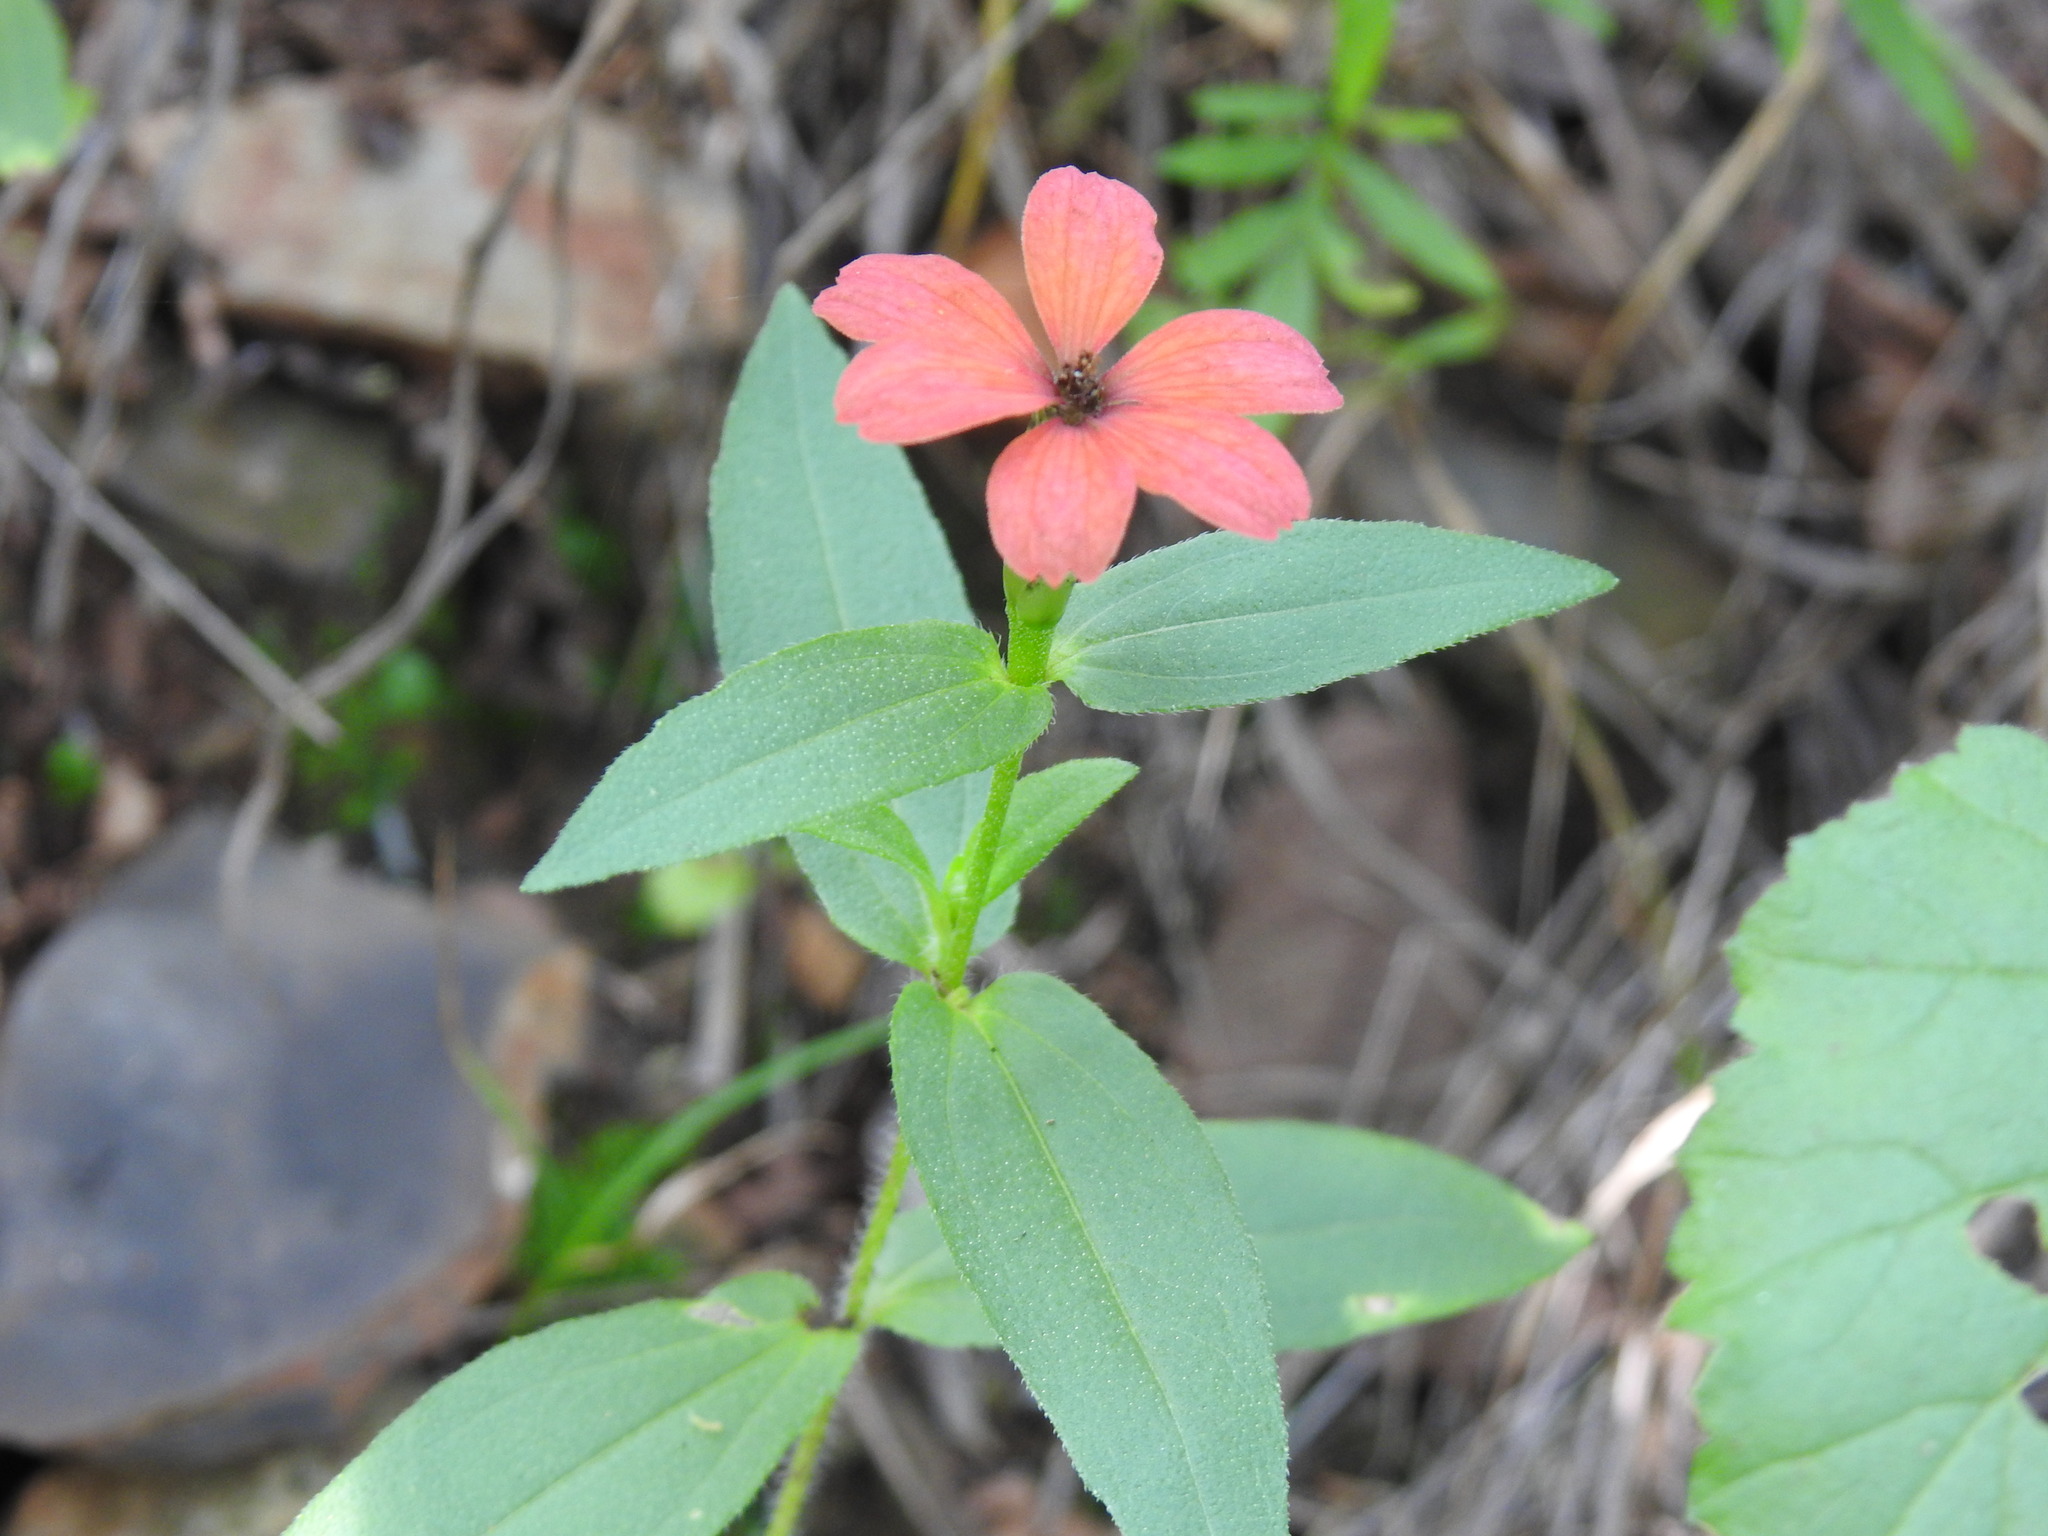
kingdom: Plantae
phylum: Tracheophyta
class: Magnoliopsida
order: Asterales
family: Asteraceae
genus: Zinnia
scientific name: Zinnia peruviana
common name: Peruvian zinnia
